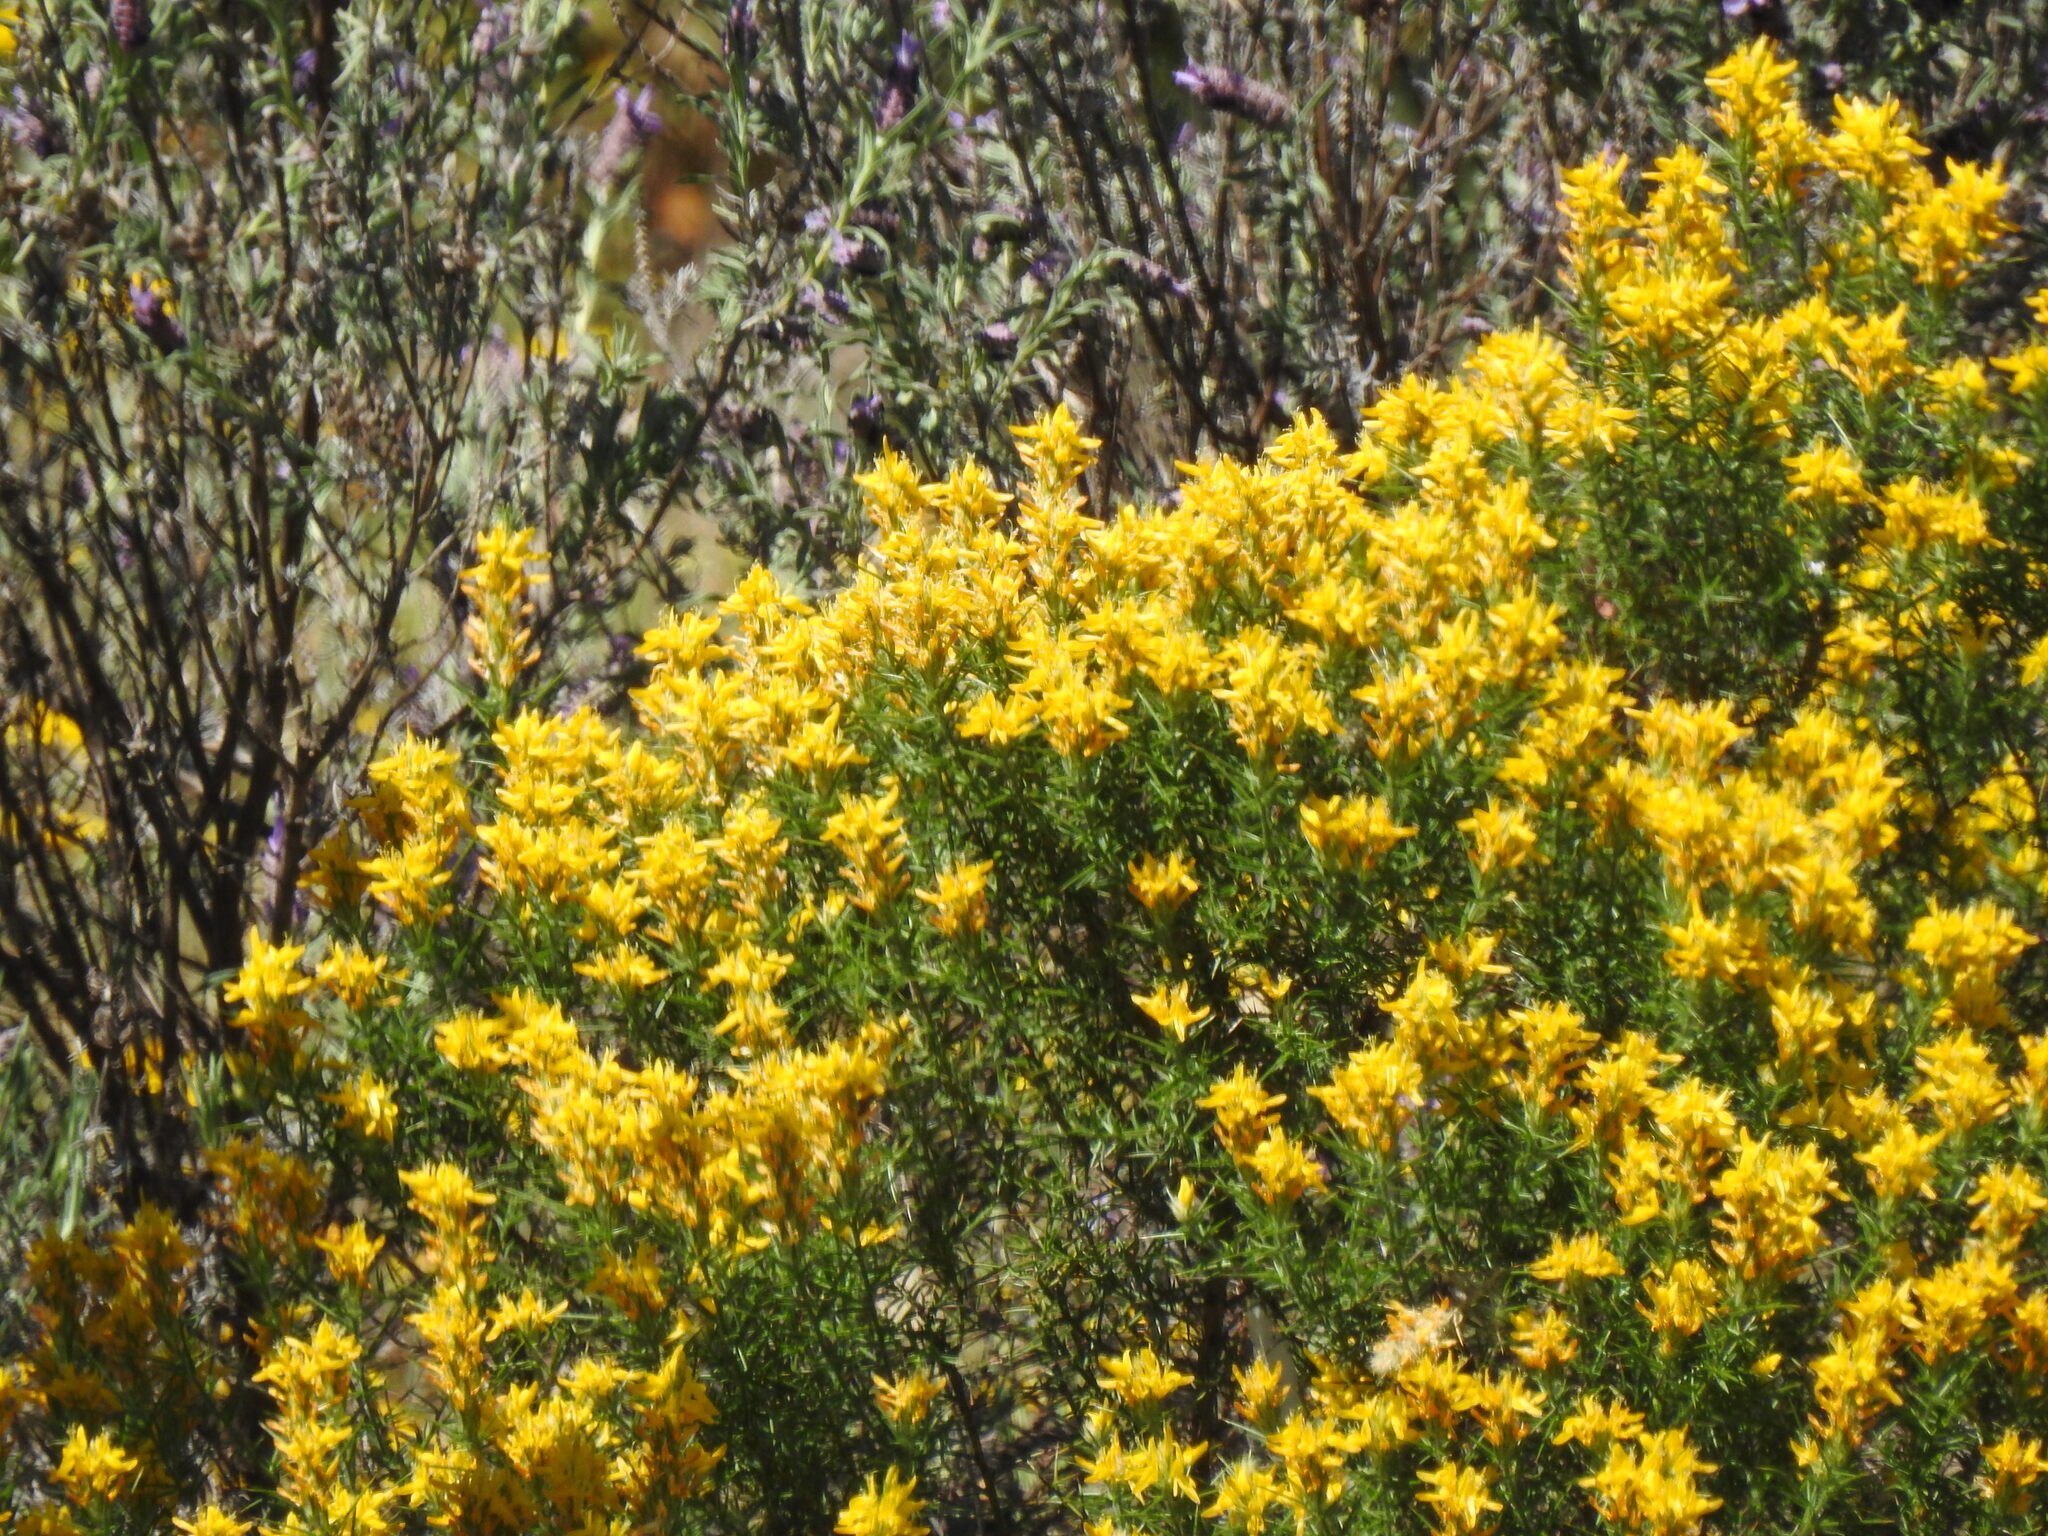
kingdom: Plantae
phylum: Tracheophyta
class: Magnoliopsida
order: Fabales
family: Fabaceae
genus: Genista
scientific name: Genista hirsuta
